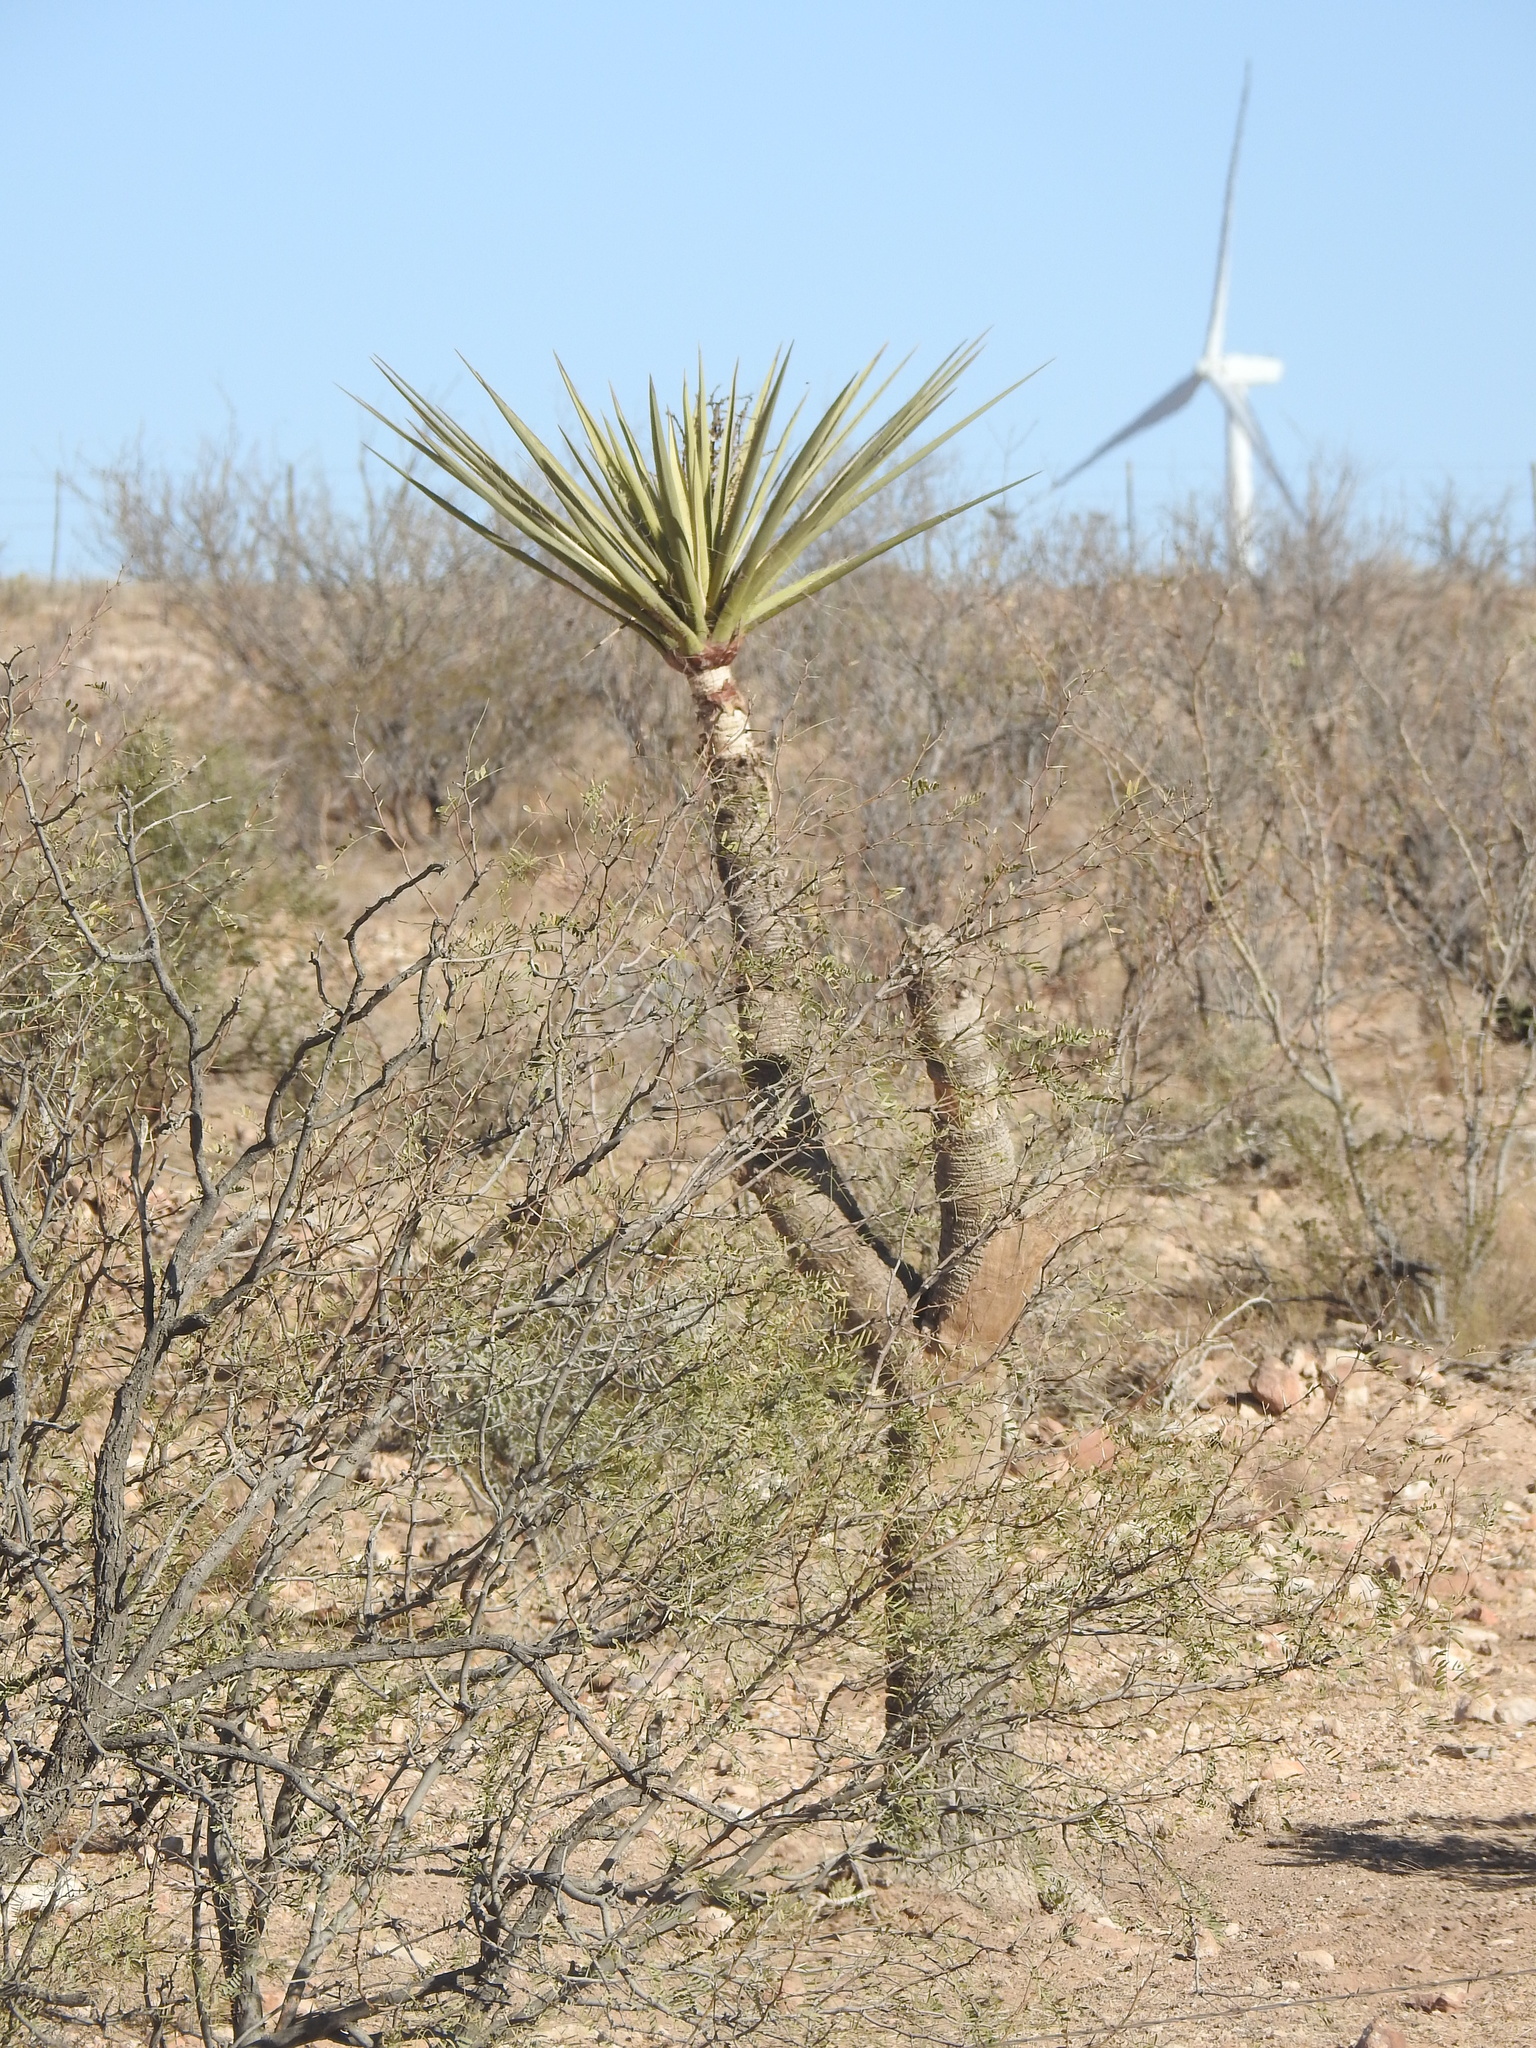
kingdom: Plantae
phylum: Tracheophyta
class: Liliopsida
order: Asparagales
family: Asparagaceae
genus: Yucca
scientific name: Yucca treculiana
